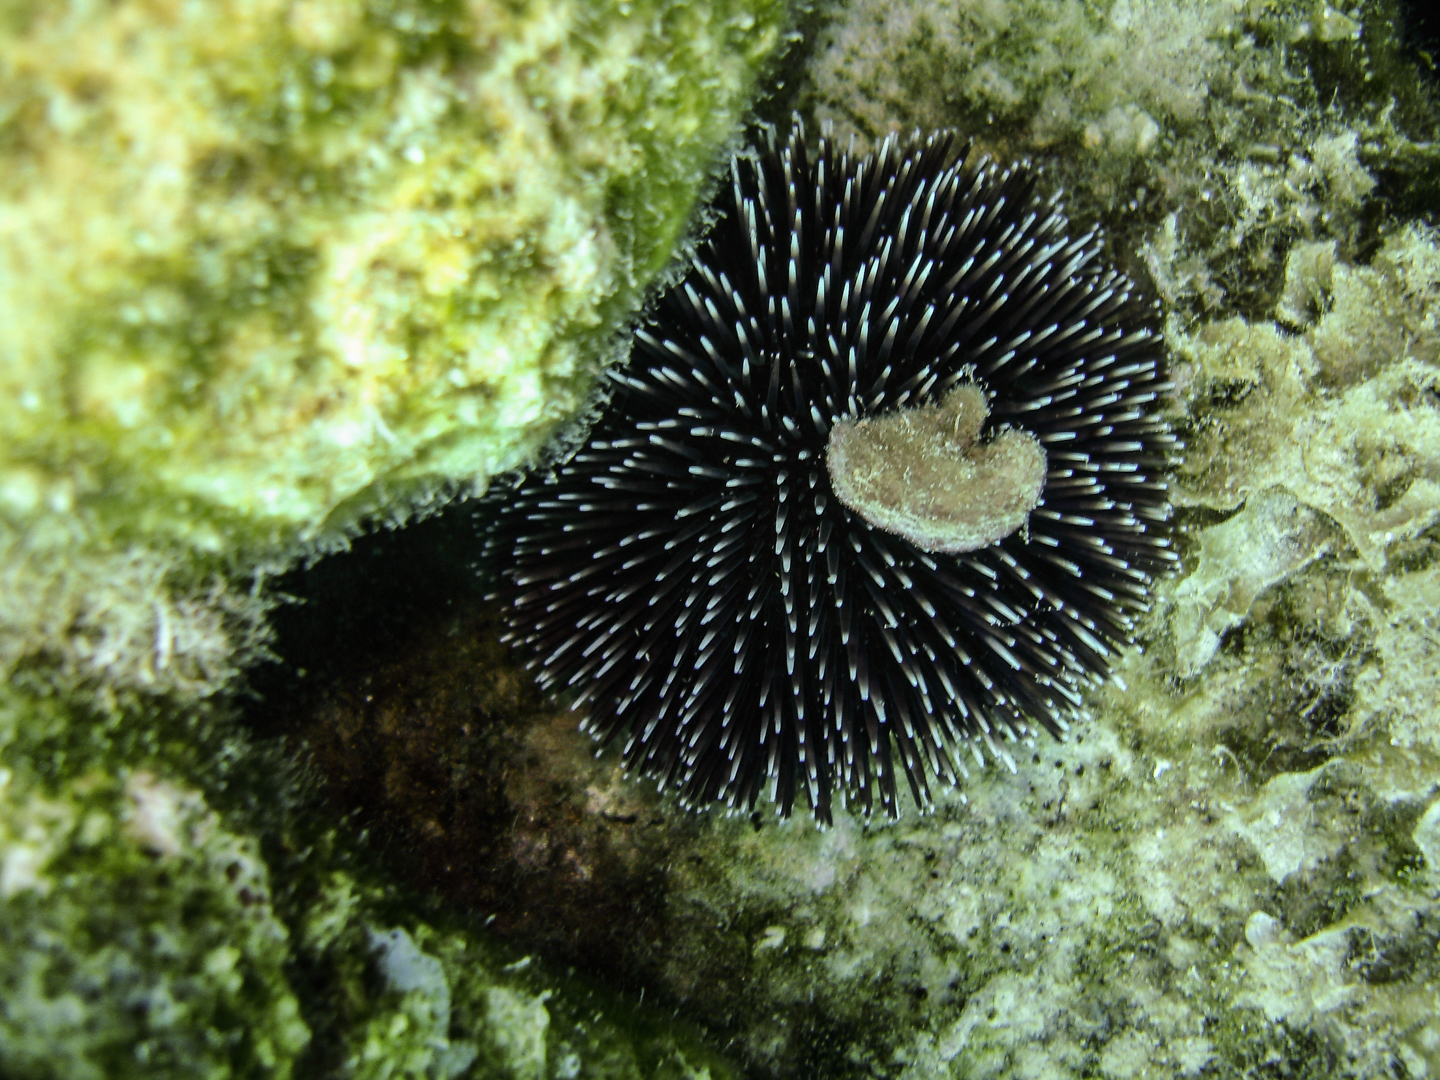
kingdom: Animalia
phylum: Echinodermata
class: Echinoidea
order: Camarodonta
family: Toxopneustidae
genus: Sphaerechinus
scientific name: Sphaerechinus granularis
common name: Violet sea urchin
